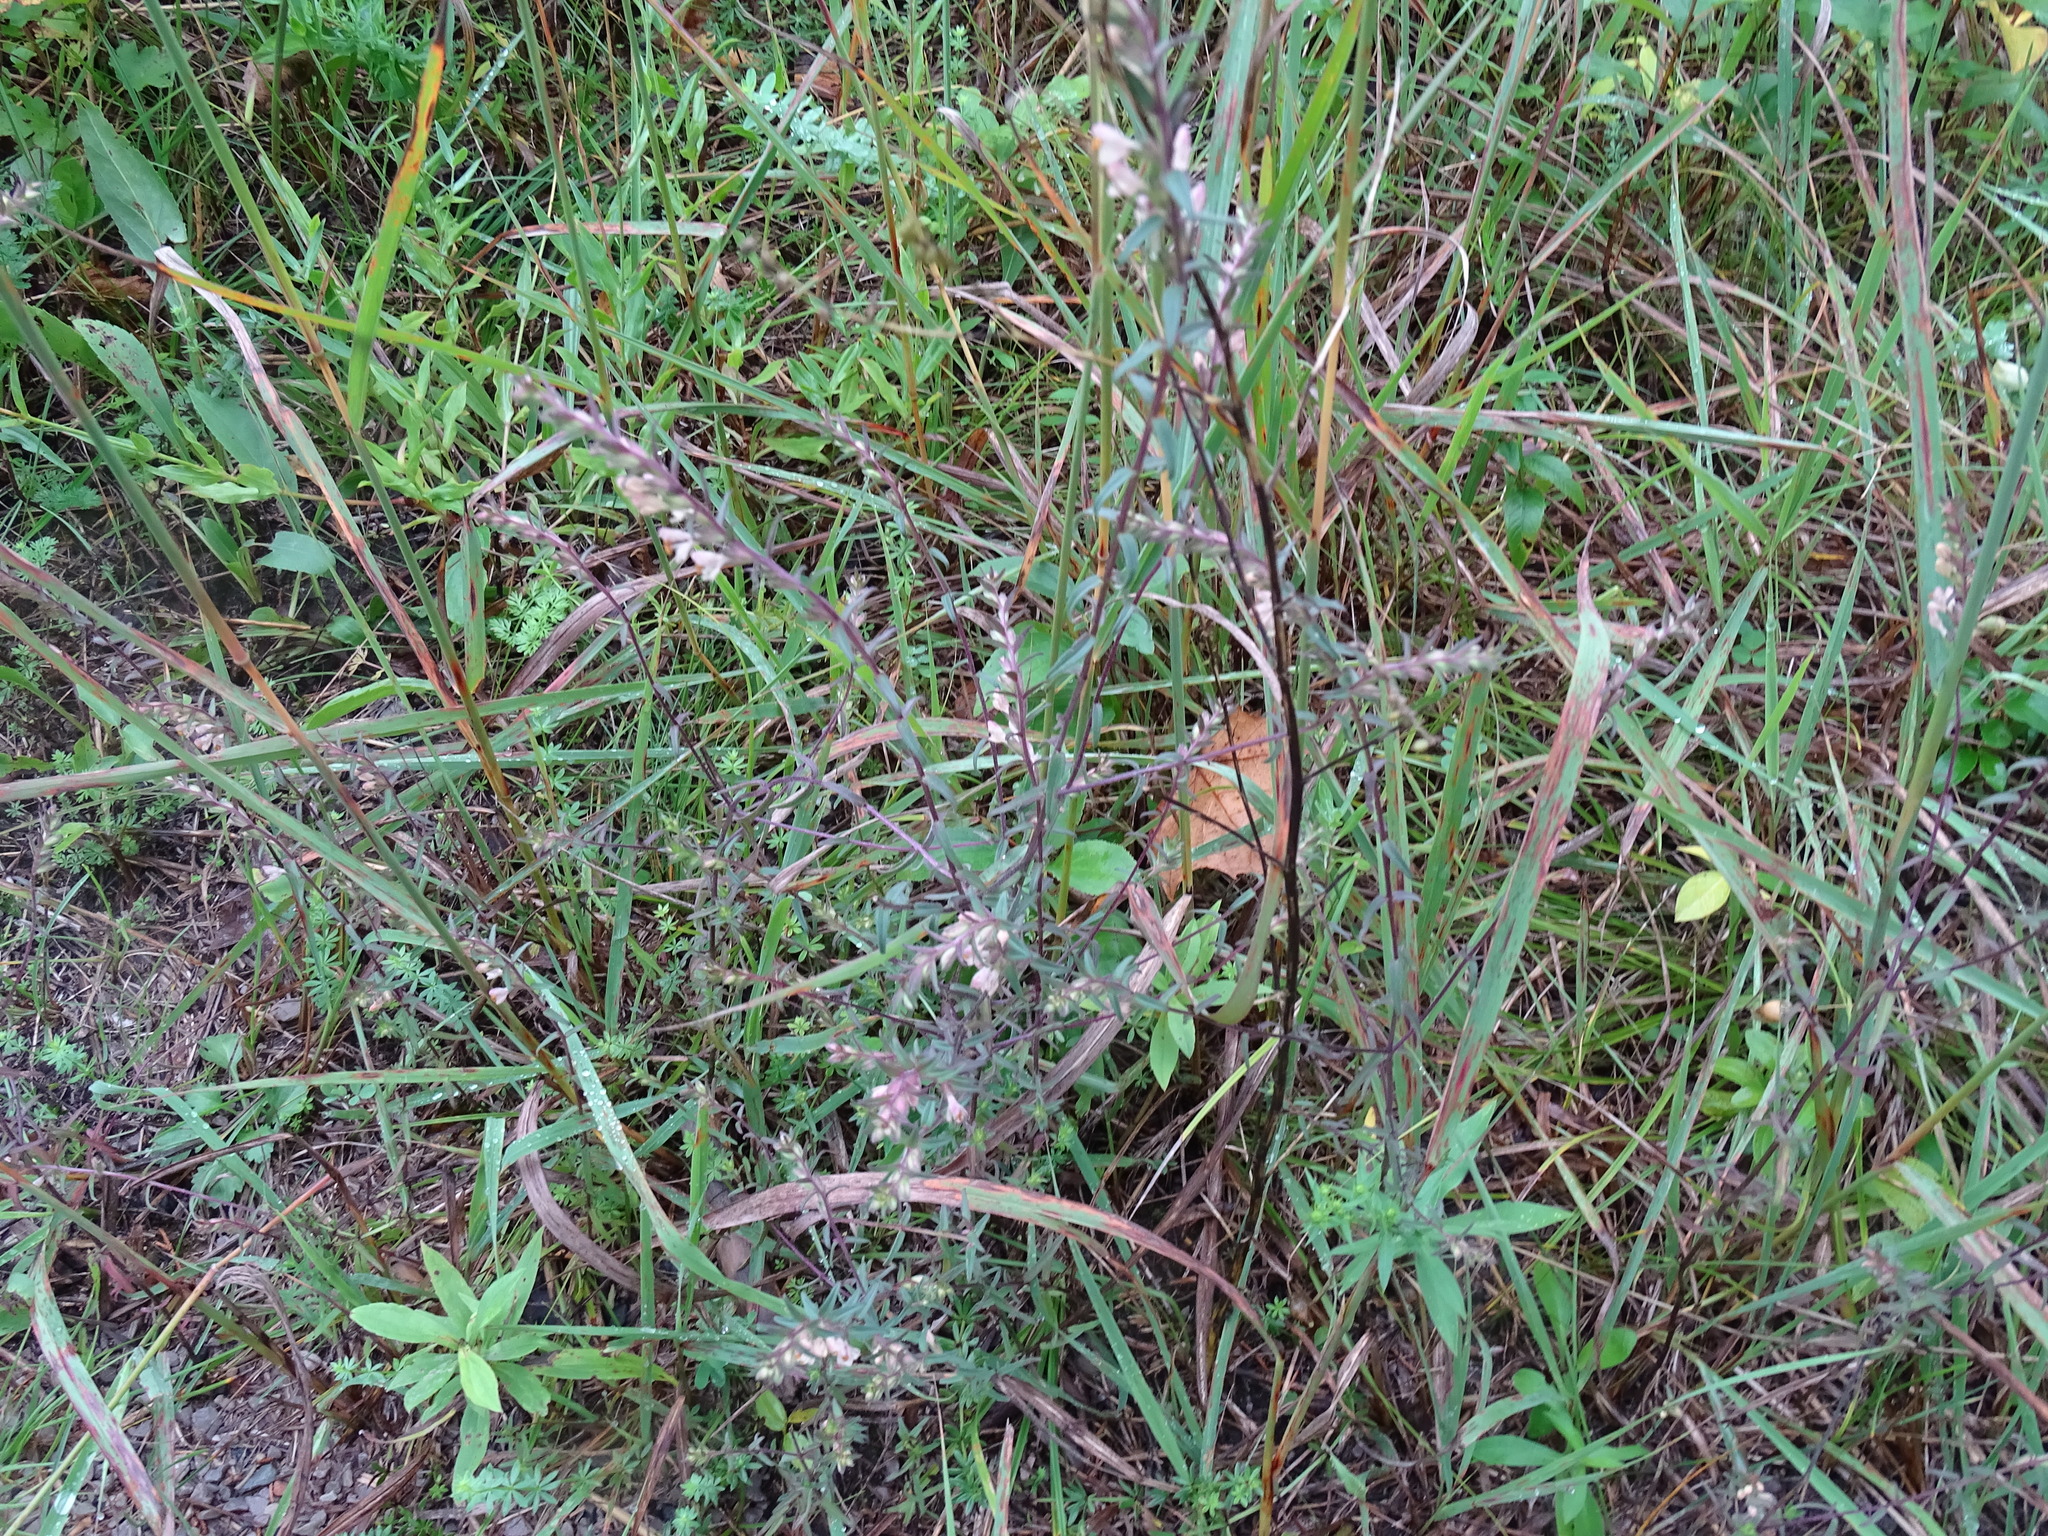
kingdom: Plantae
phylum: Tracheophyta
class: Magnoliopsida
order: Lamiales
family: Orobanchaceae
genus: Odontites
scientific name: Odontites vulgaris
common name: Broomrape
